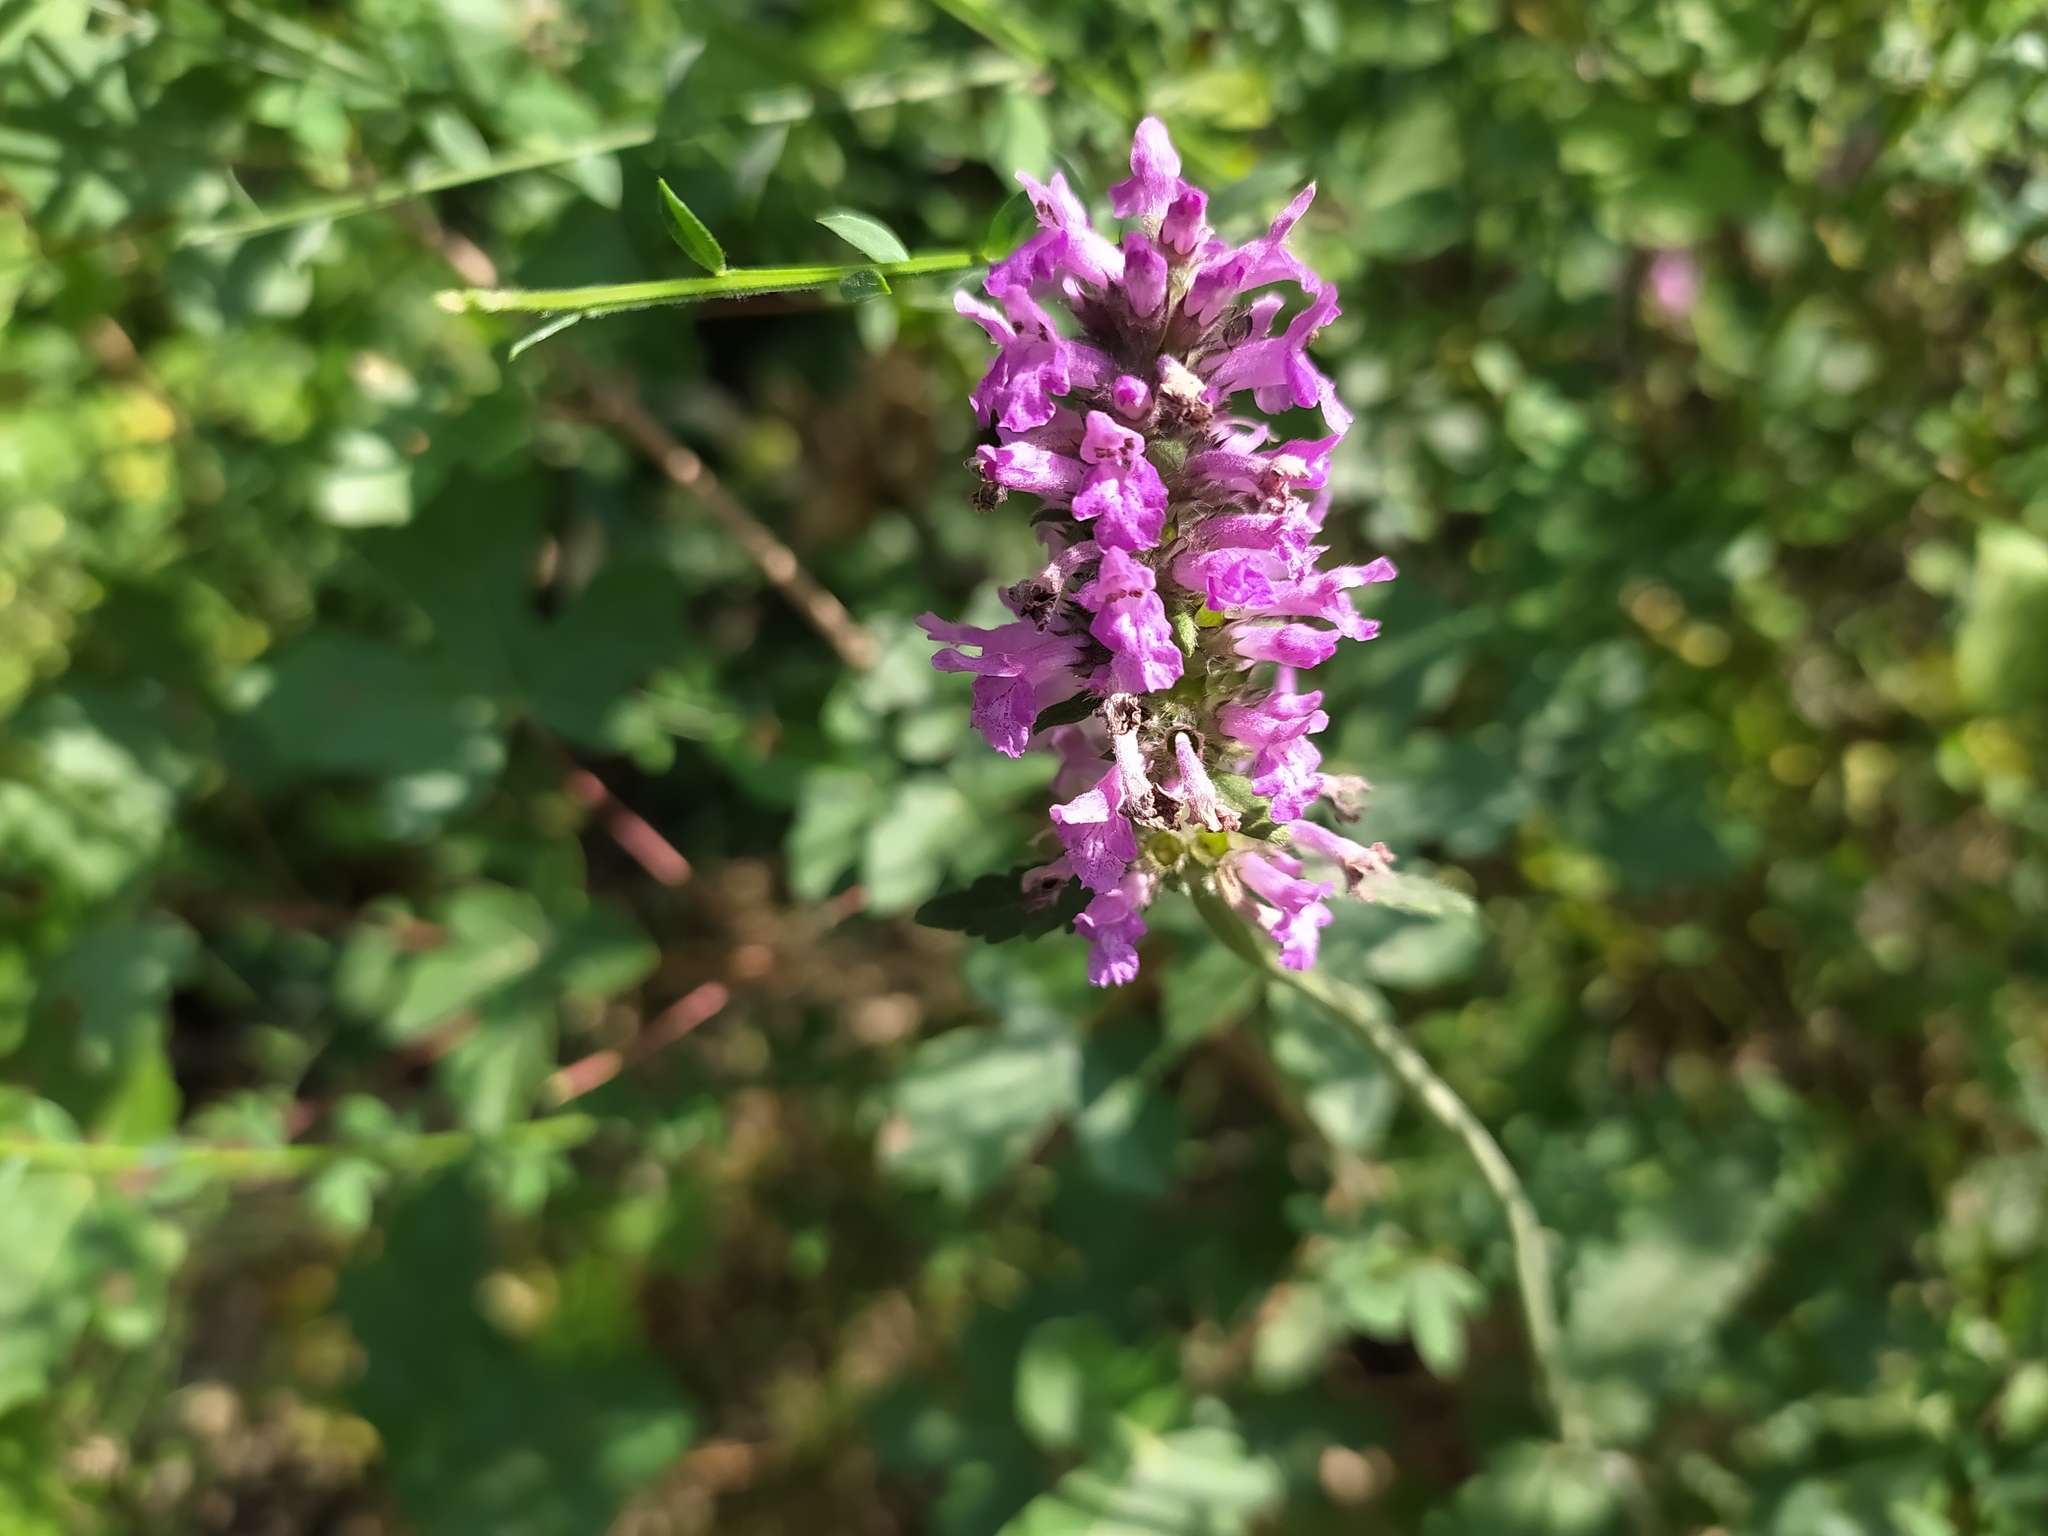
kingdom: Plantae
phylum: Tracheophyta
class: Magnoliopsida
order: Lamiales
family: Lamiaceae
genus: Betonica
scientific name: Betonica officinalis
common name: Bishop's-wort
